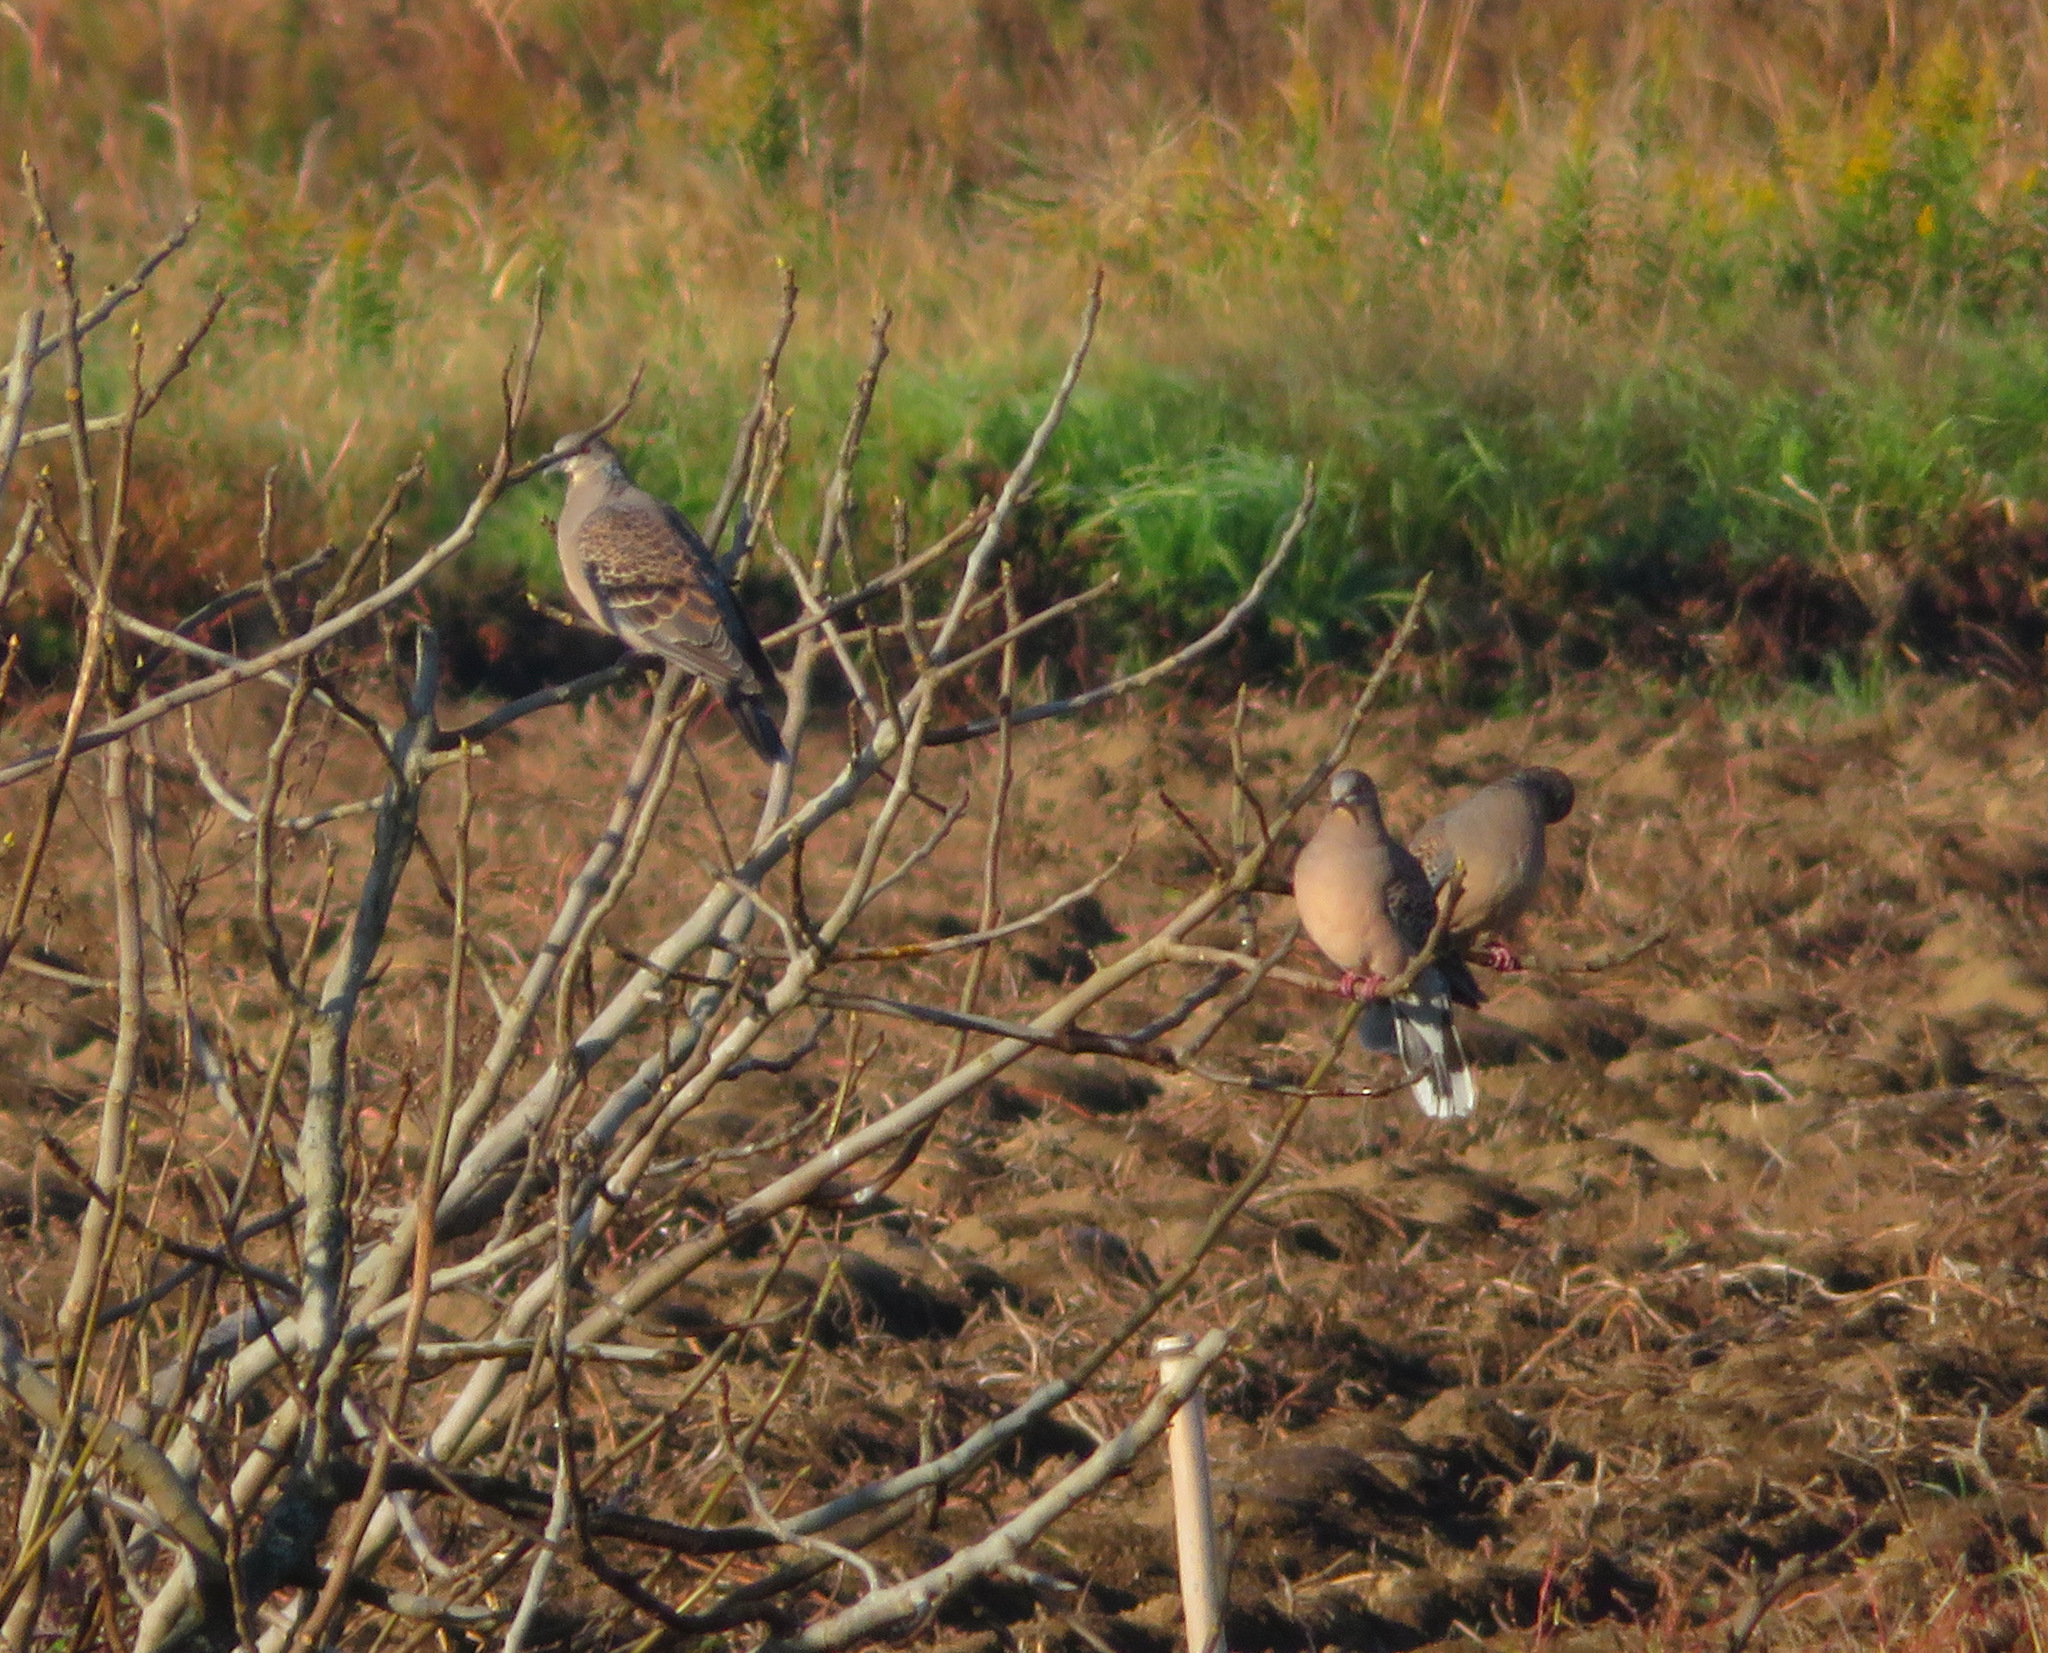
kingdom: Animalia
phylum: Chordata
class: Aves
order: Columbiformes
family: Columbidae
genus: Streptopelia
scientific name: Streptopelia orientalis
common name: Oriental turtle dove
